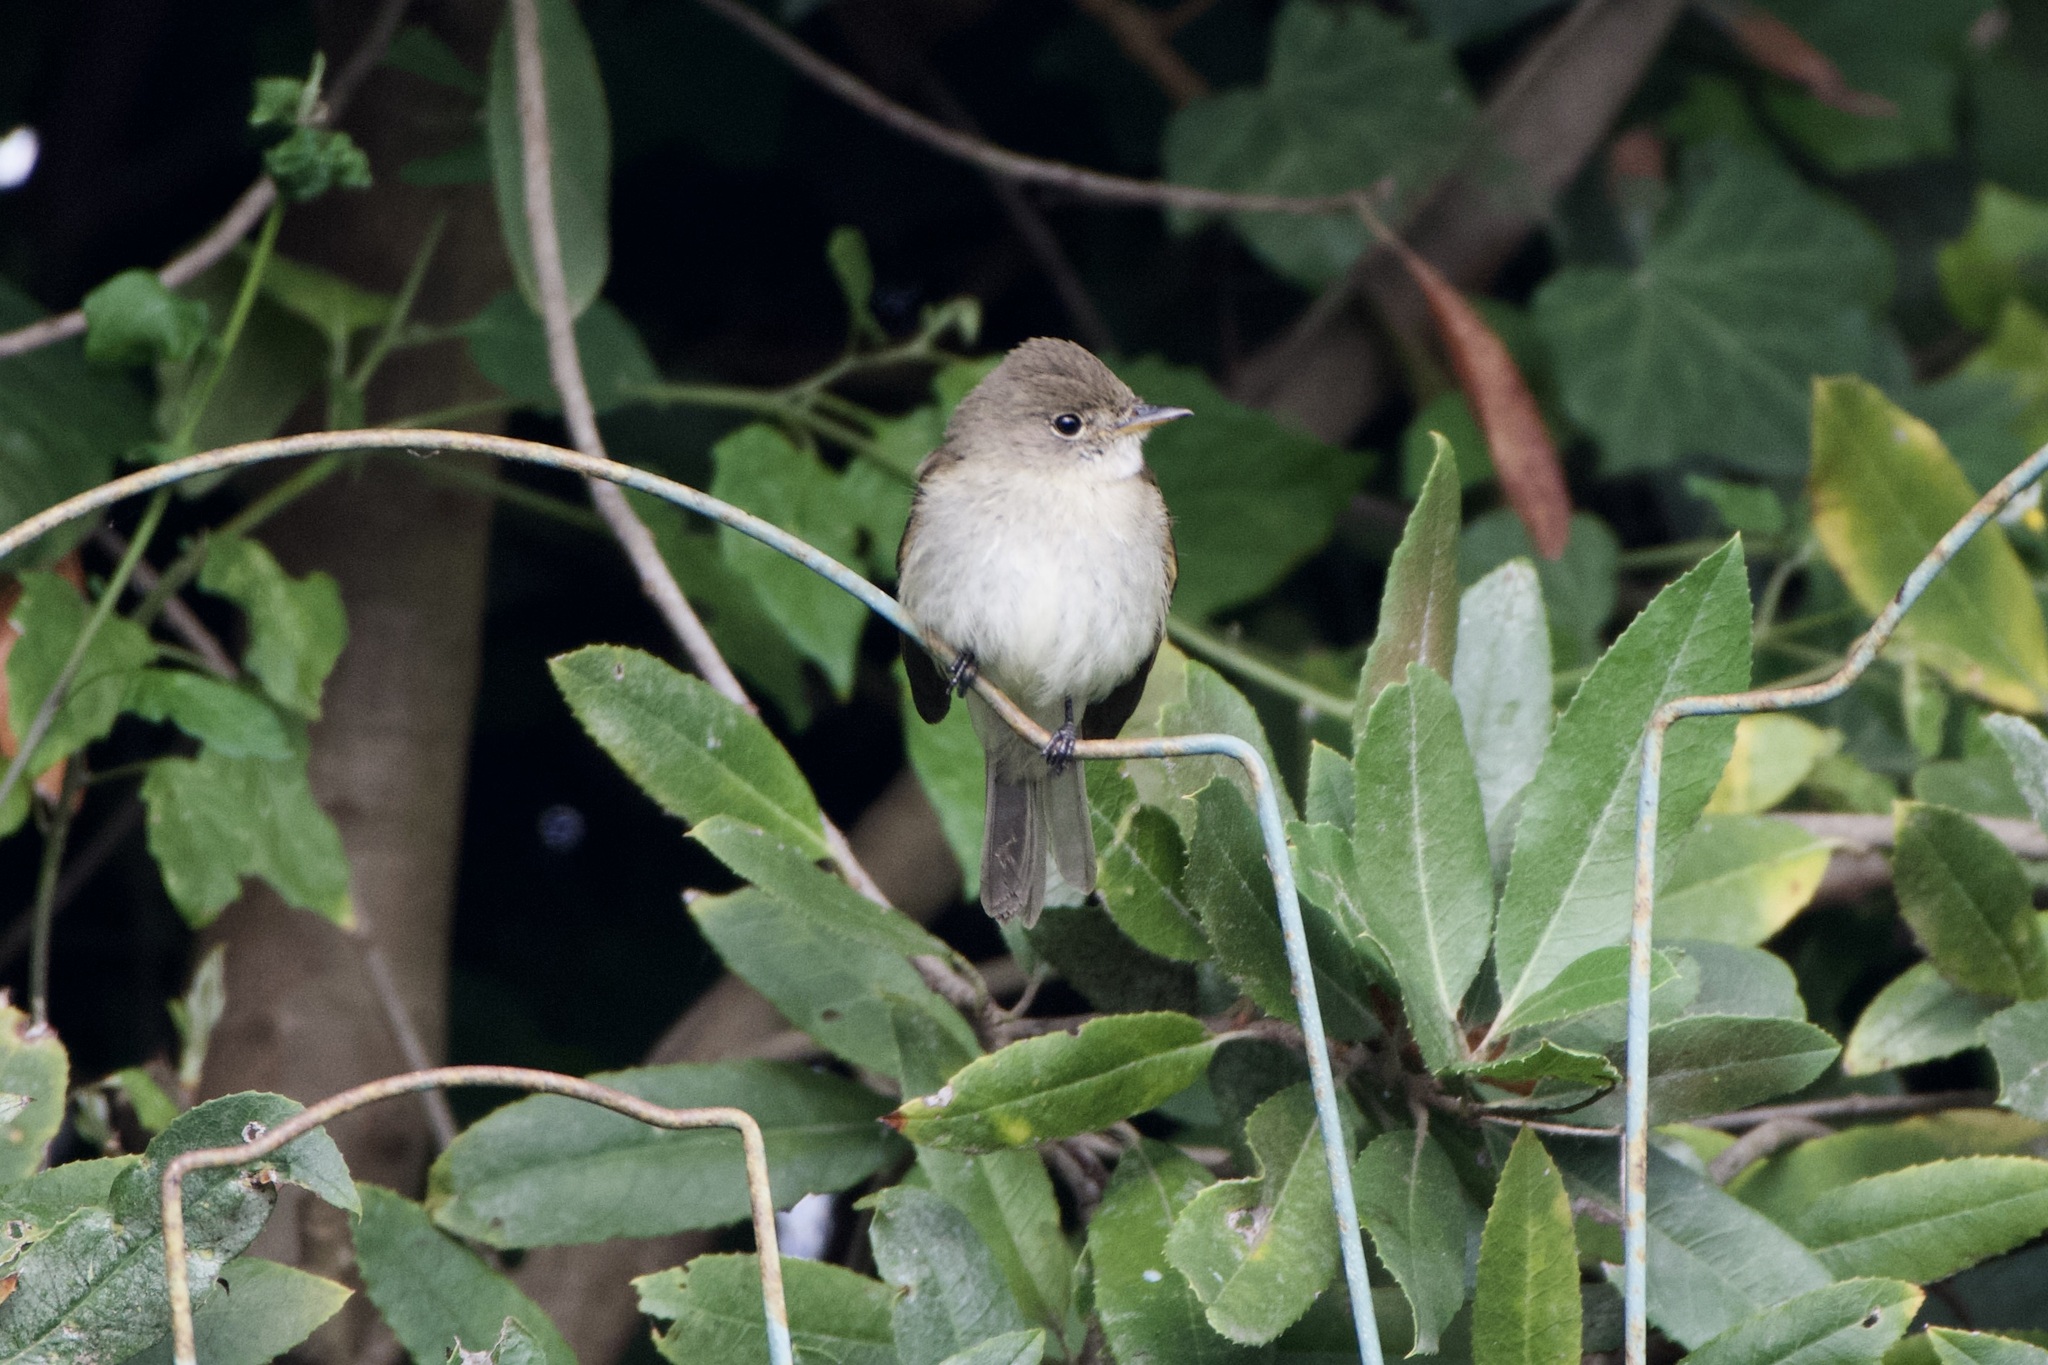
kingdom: Animalia
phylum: Chordata
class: Aves
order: Passeriformes
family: Tyrannidae
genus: Empidonax
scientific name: Empidonax traillii
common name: Willow flycatcher
